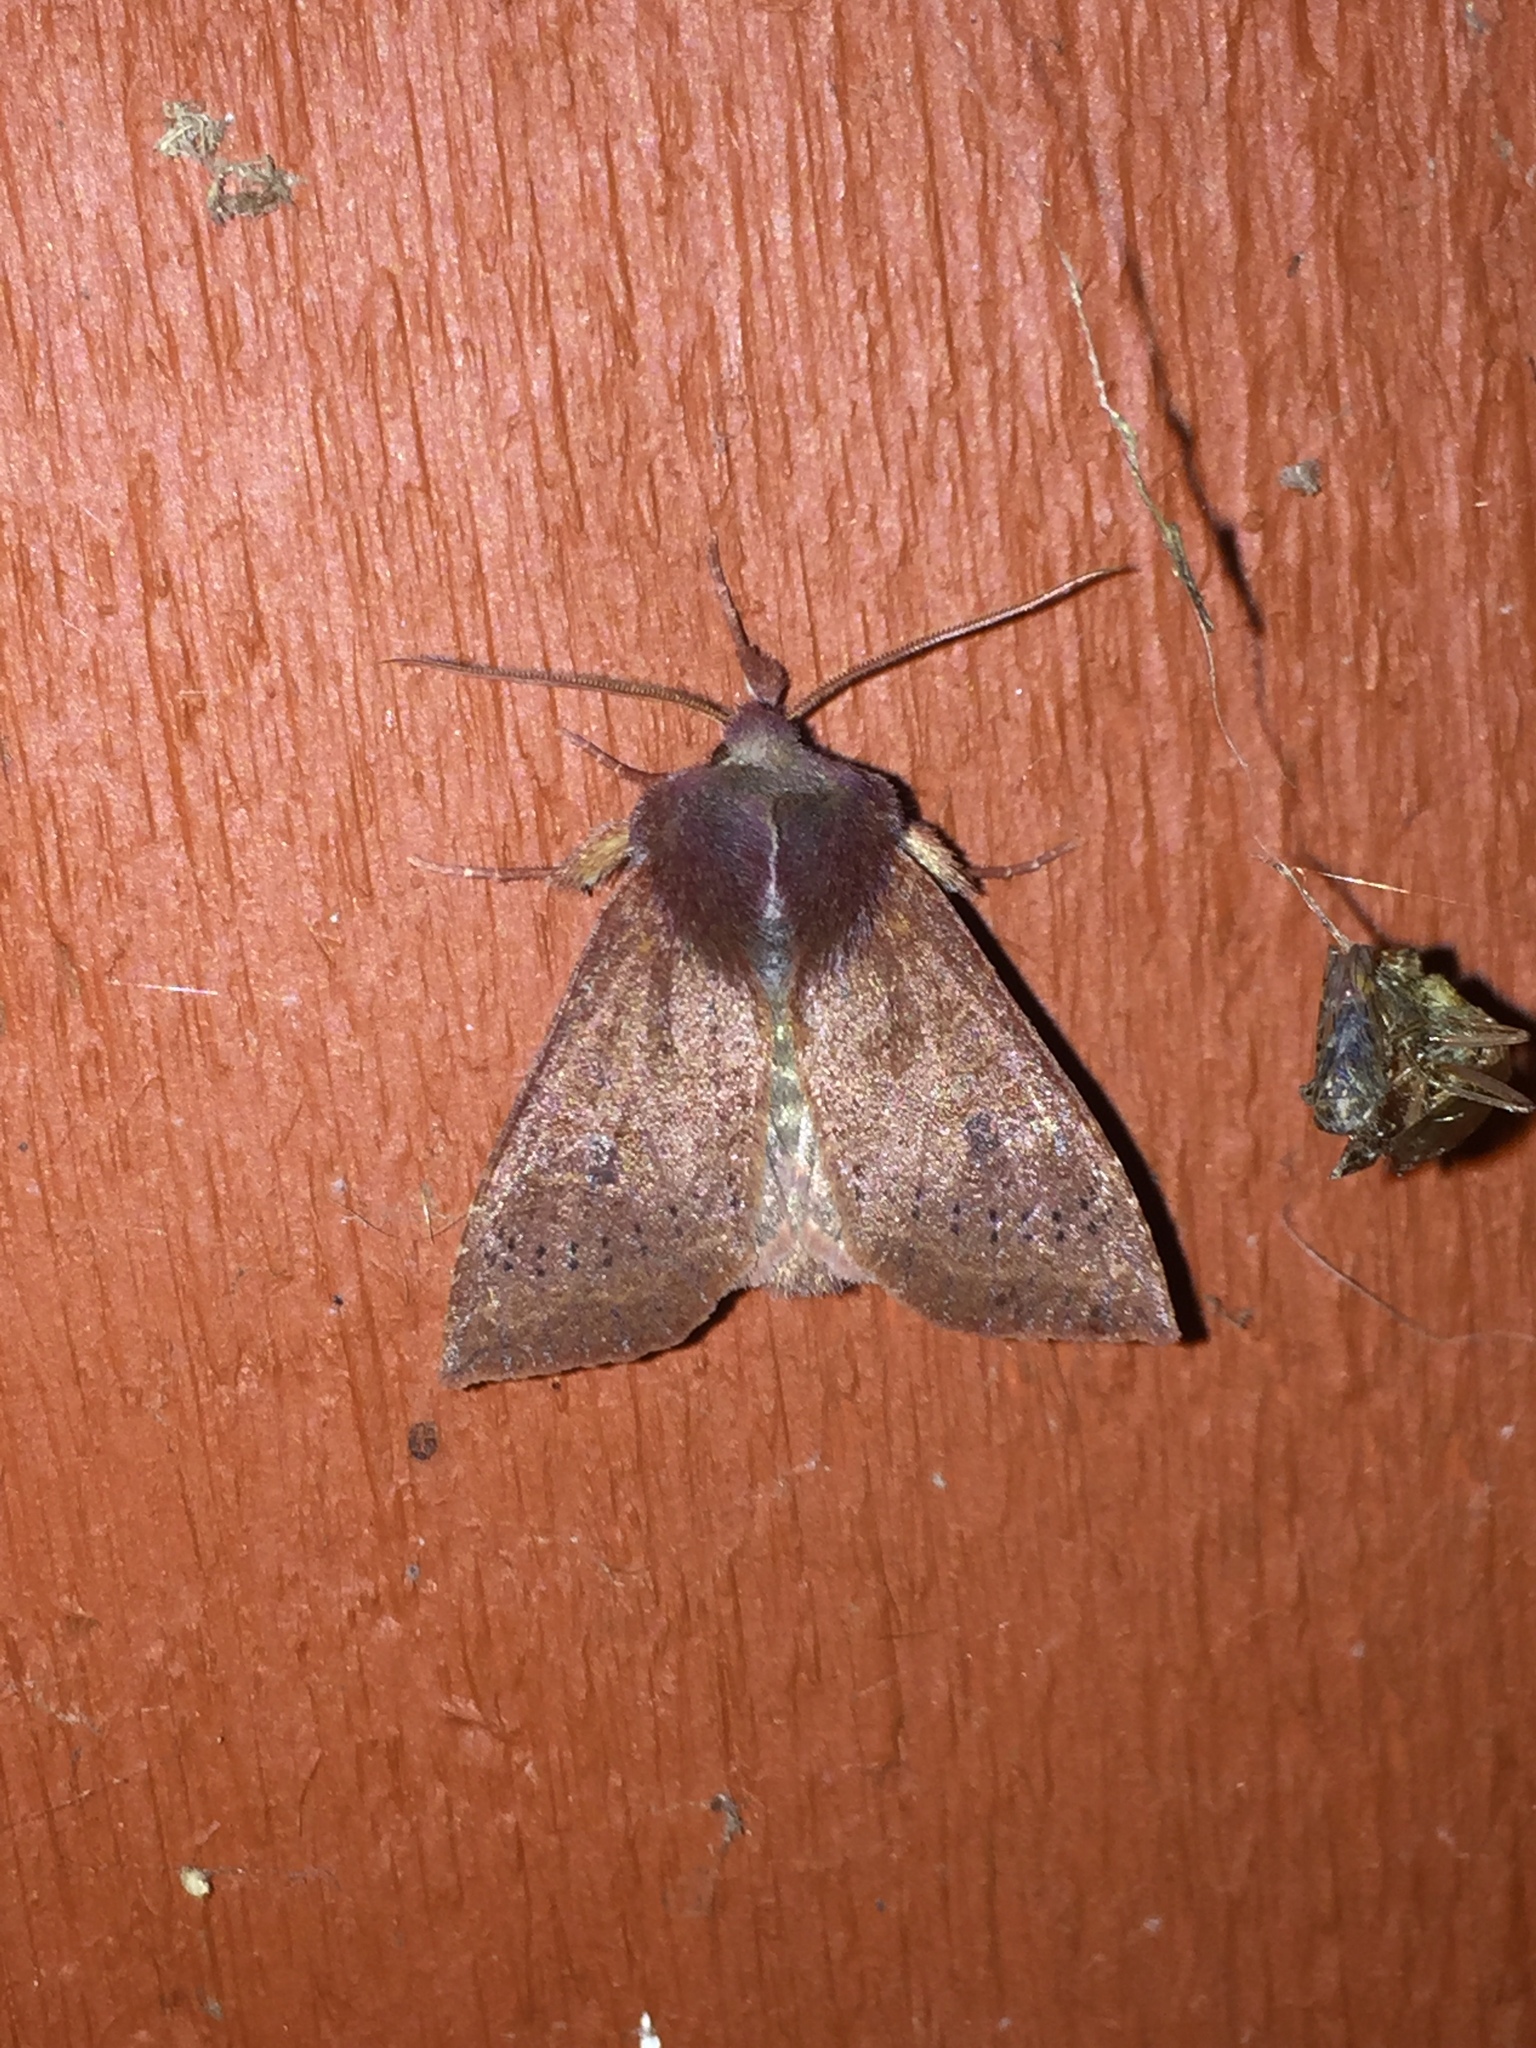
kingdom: Animalia
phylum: Arthropoda
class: Insecta
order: Lepidoptera
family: Noctuidae
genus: Orthosia
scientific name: Orthosia transparens
